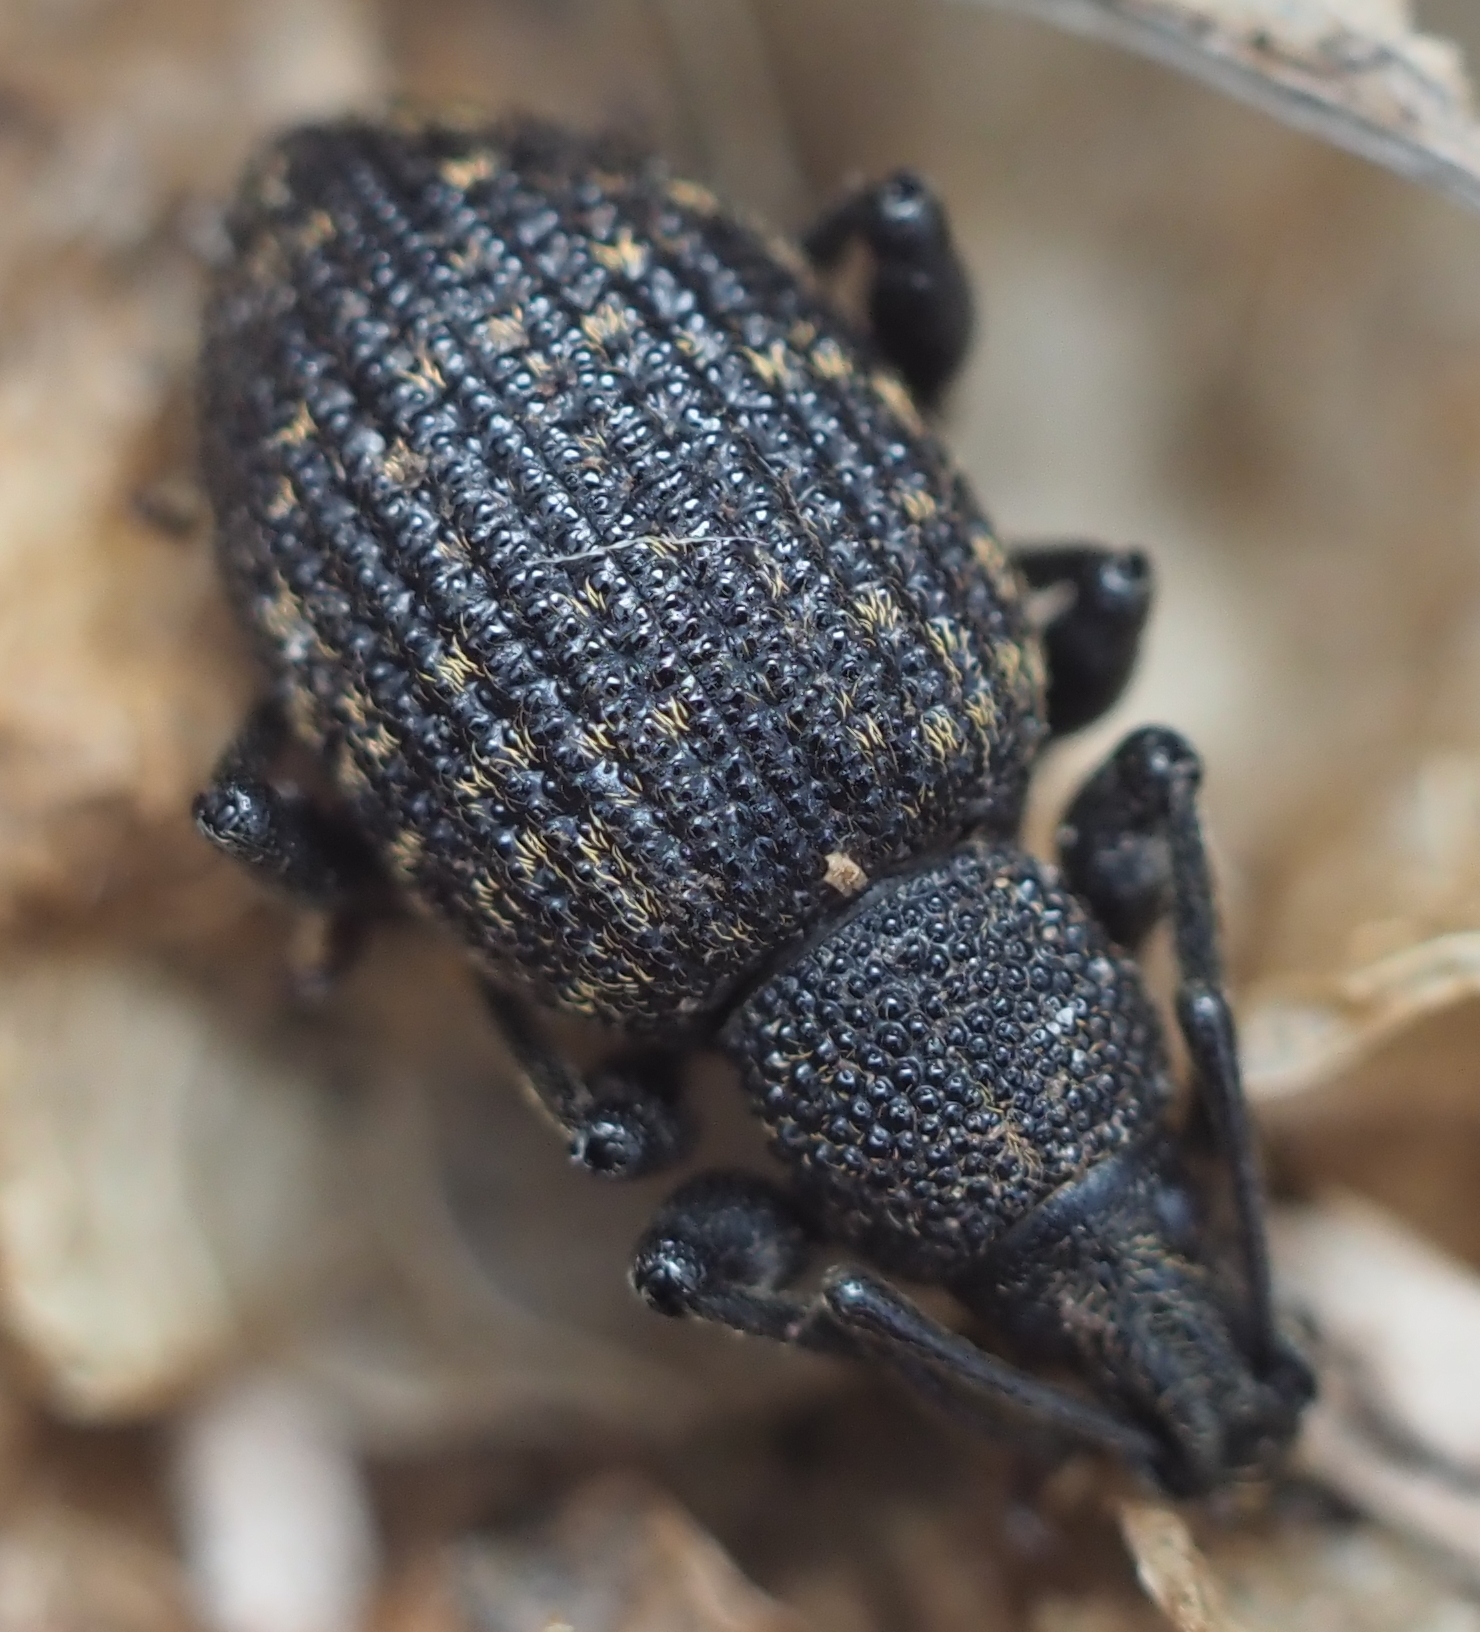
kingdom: Animalia
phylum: Arthropoda
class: Insecta
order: Coleoptera
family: Curculionidae
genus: Otiorhynchus
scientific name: Otiorhynchus sulcatus
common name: Black vine weevil
